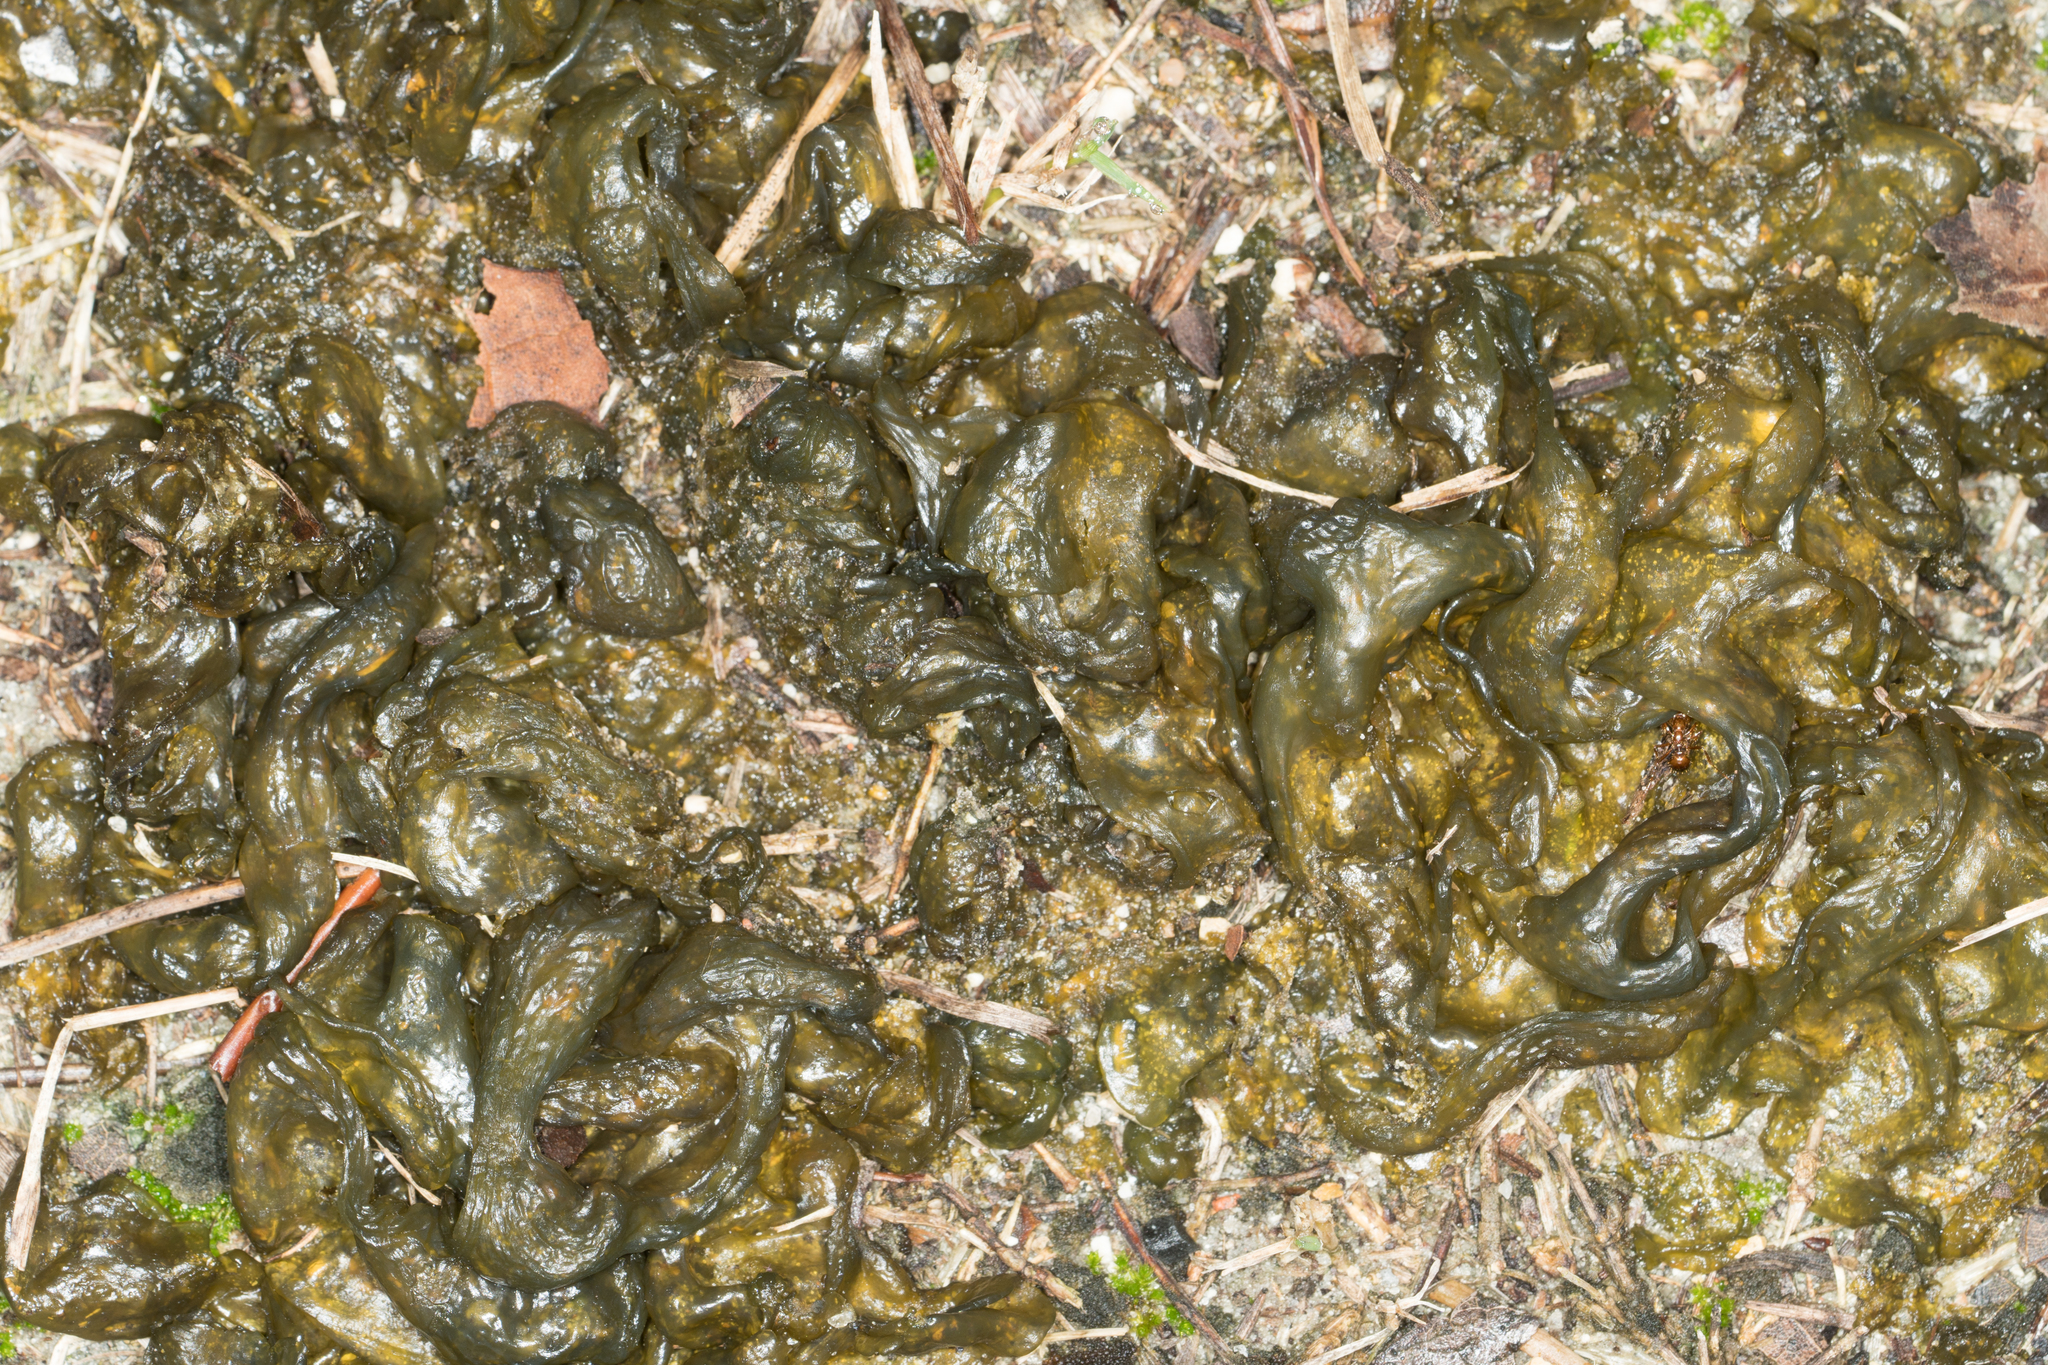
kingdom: Bacteria
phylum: Cyanobacteria
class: Cyanobacteriia
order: Cyanobacteriales
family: Nostocaceae
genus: Nostoc
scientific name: Nostoc commune
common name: Star jelly
